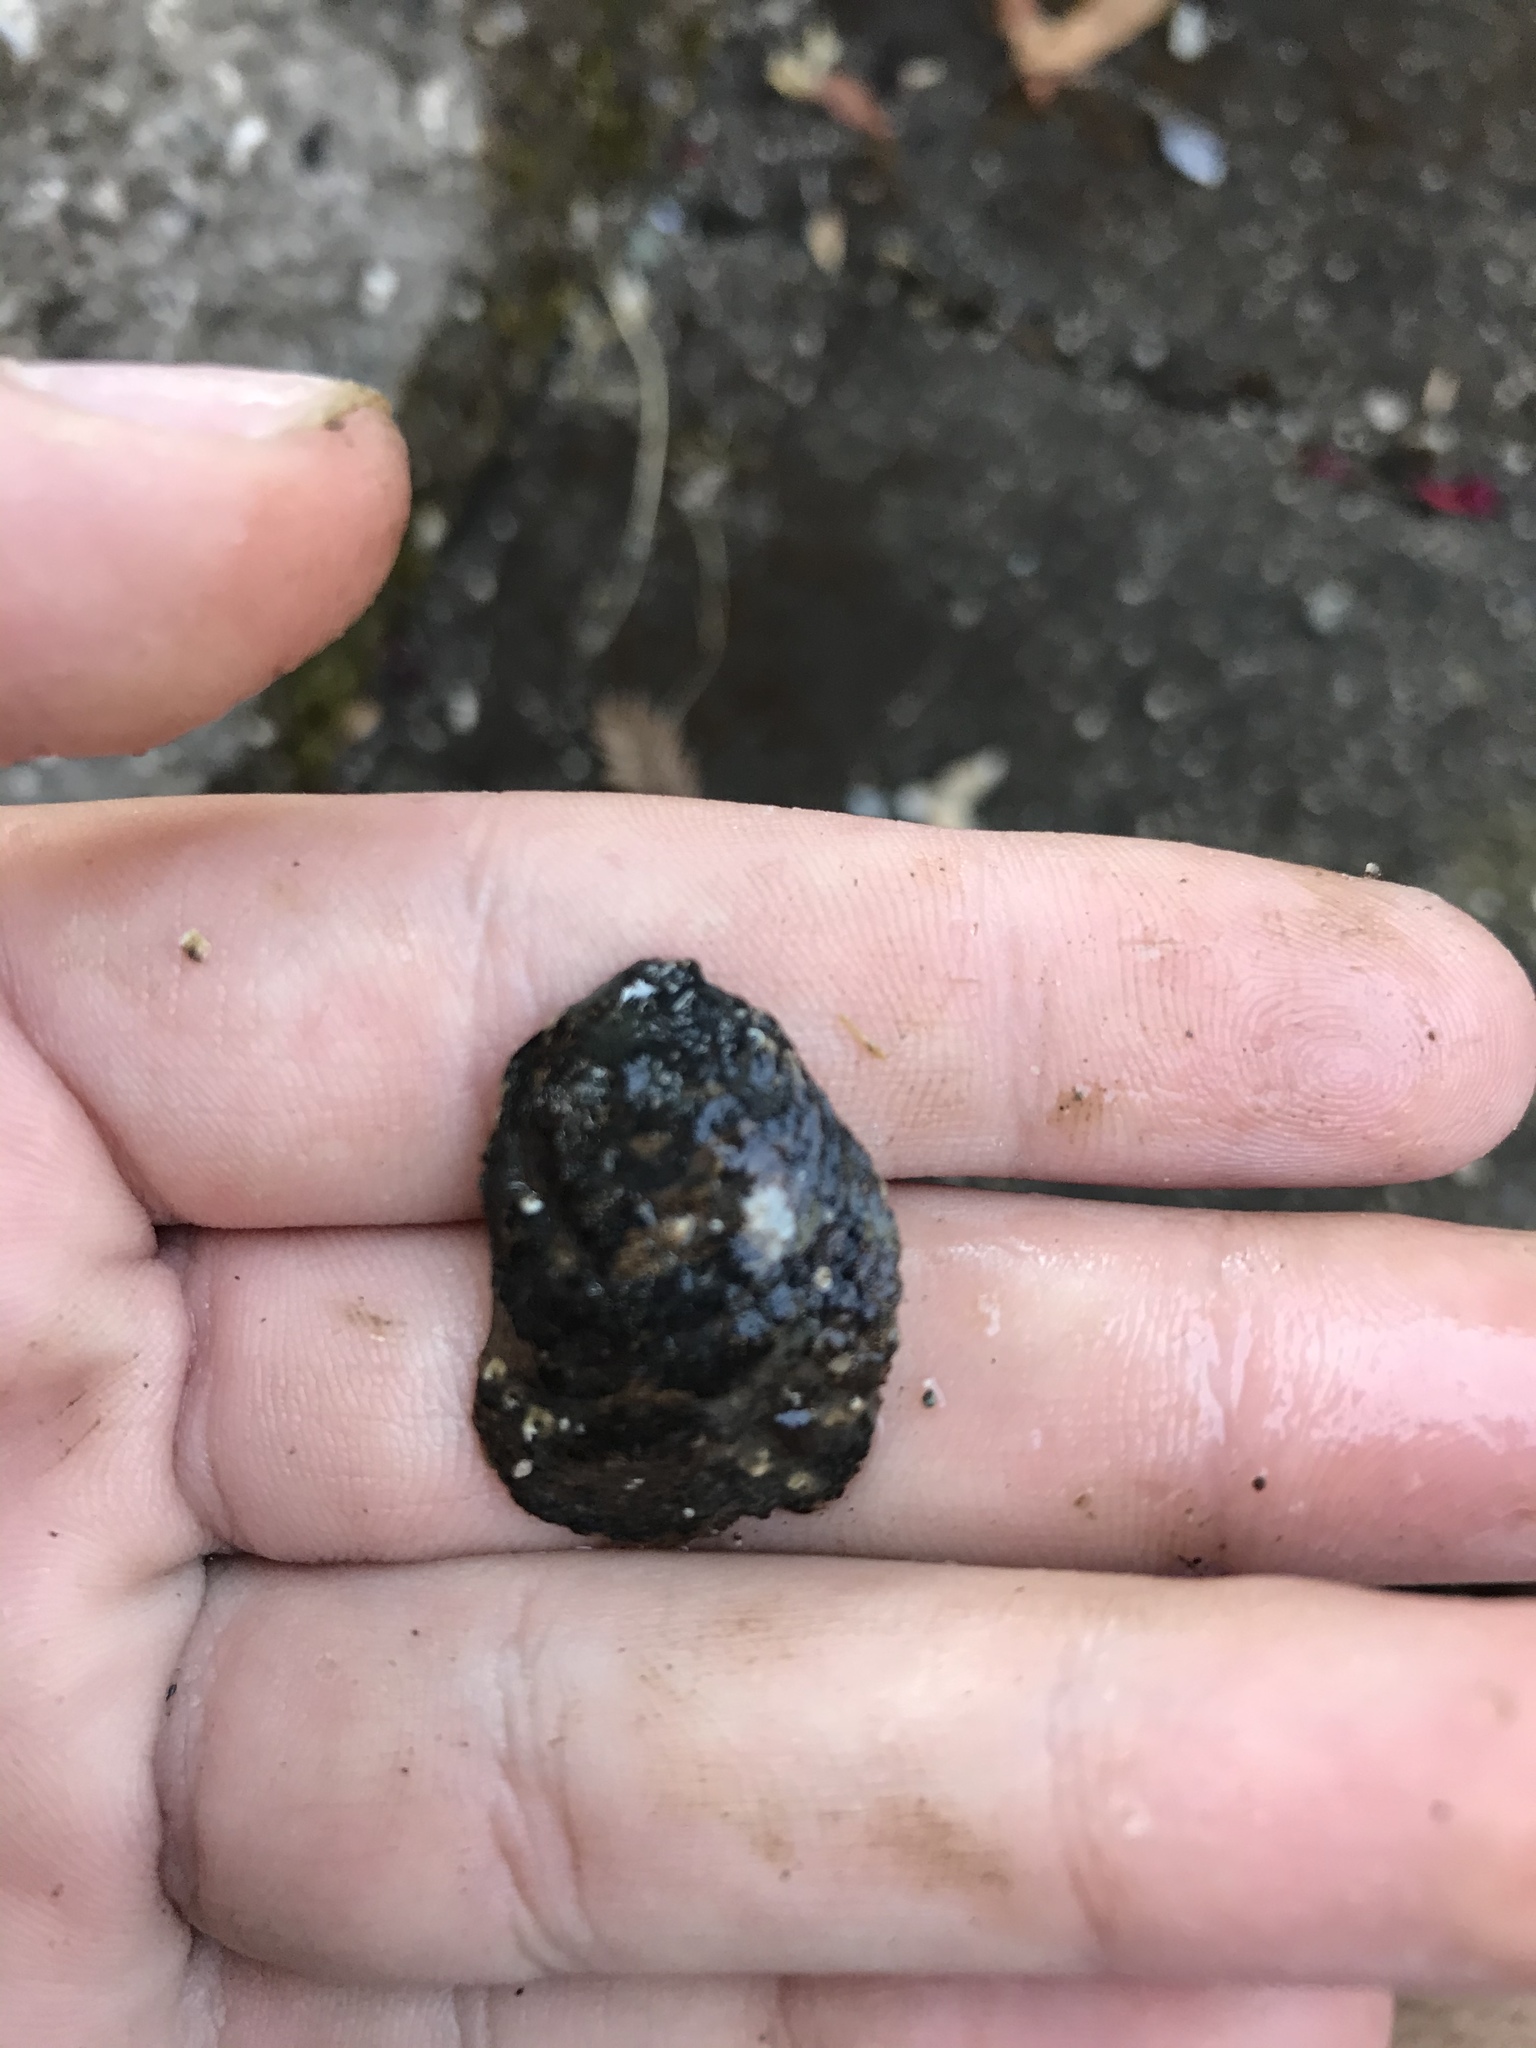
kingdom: Animalia
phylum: Mollusca
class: Bivalvia
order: Ostreida
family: Ostreidae
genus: Ostrea
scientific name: Ostrea lurida
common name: Olympia flat oyster
